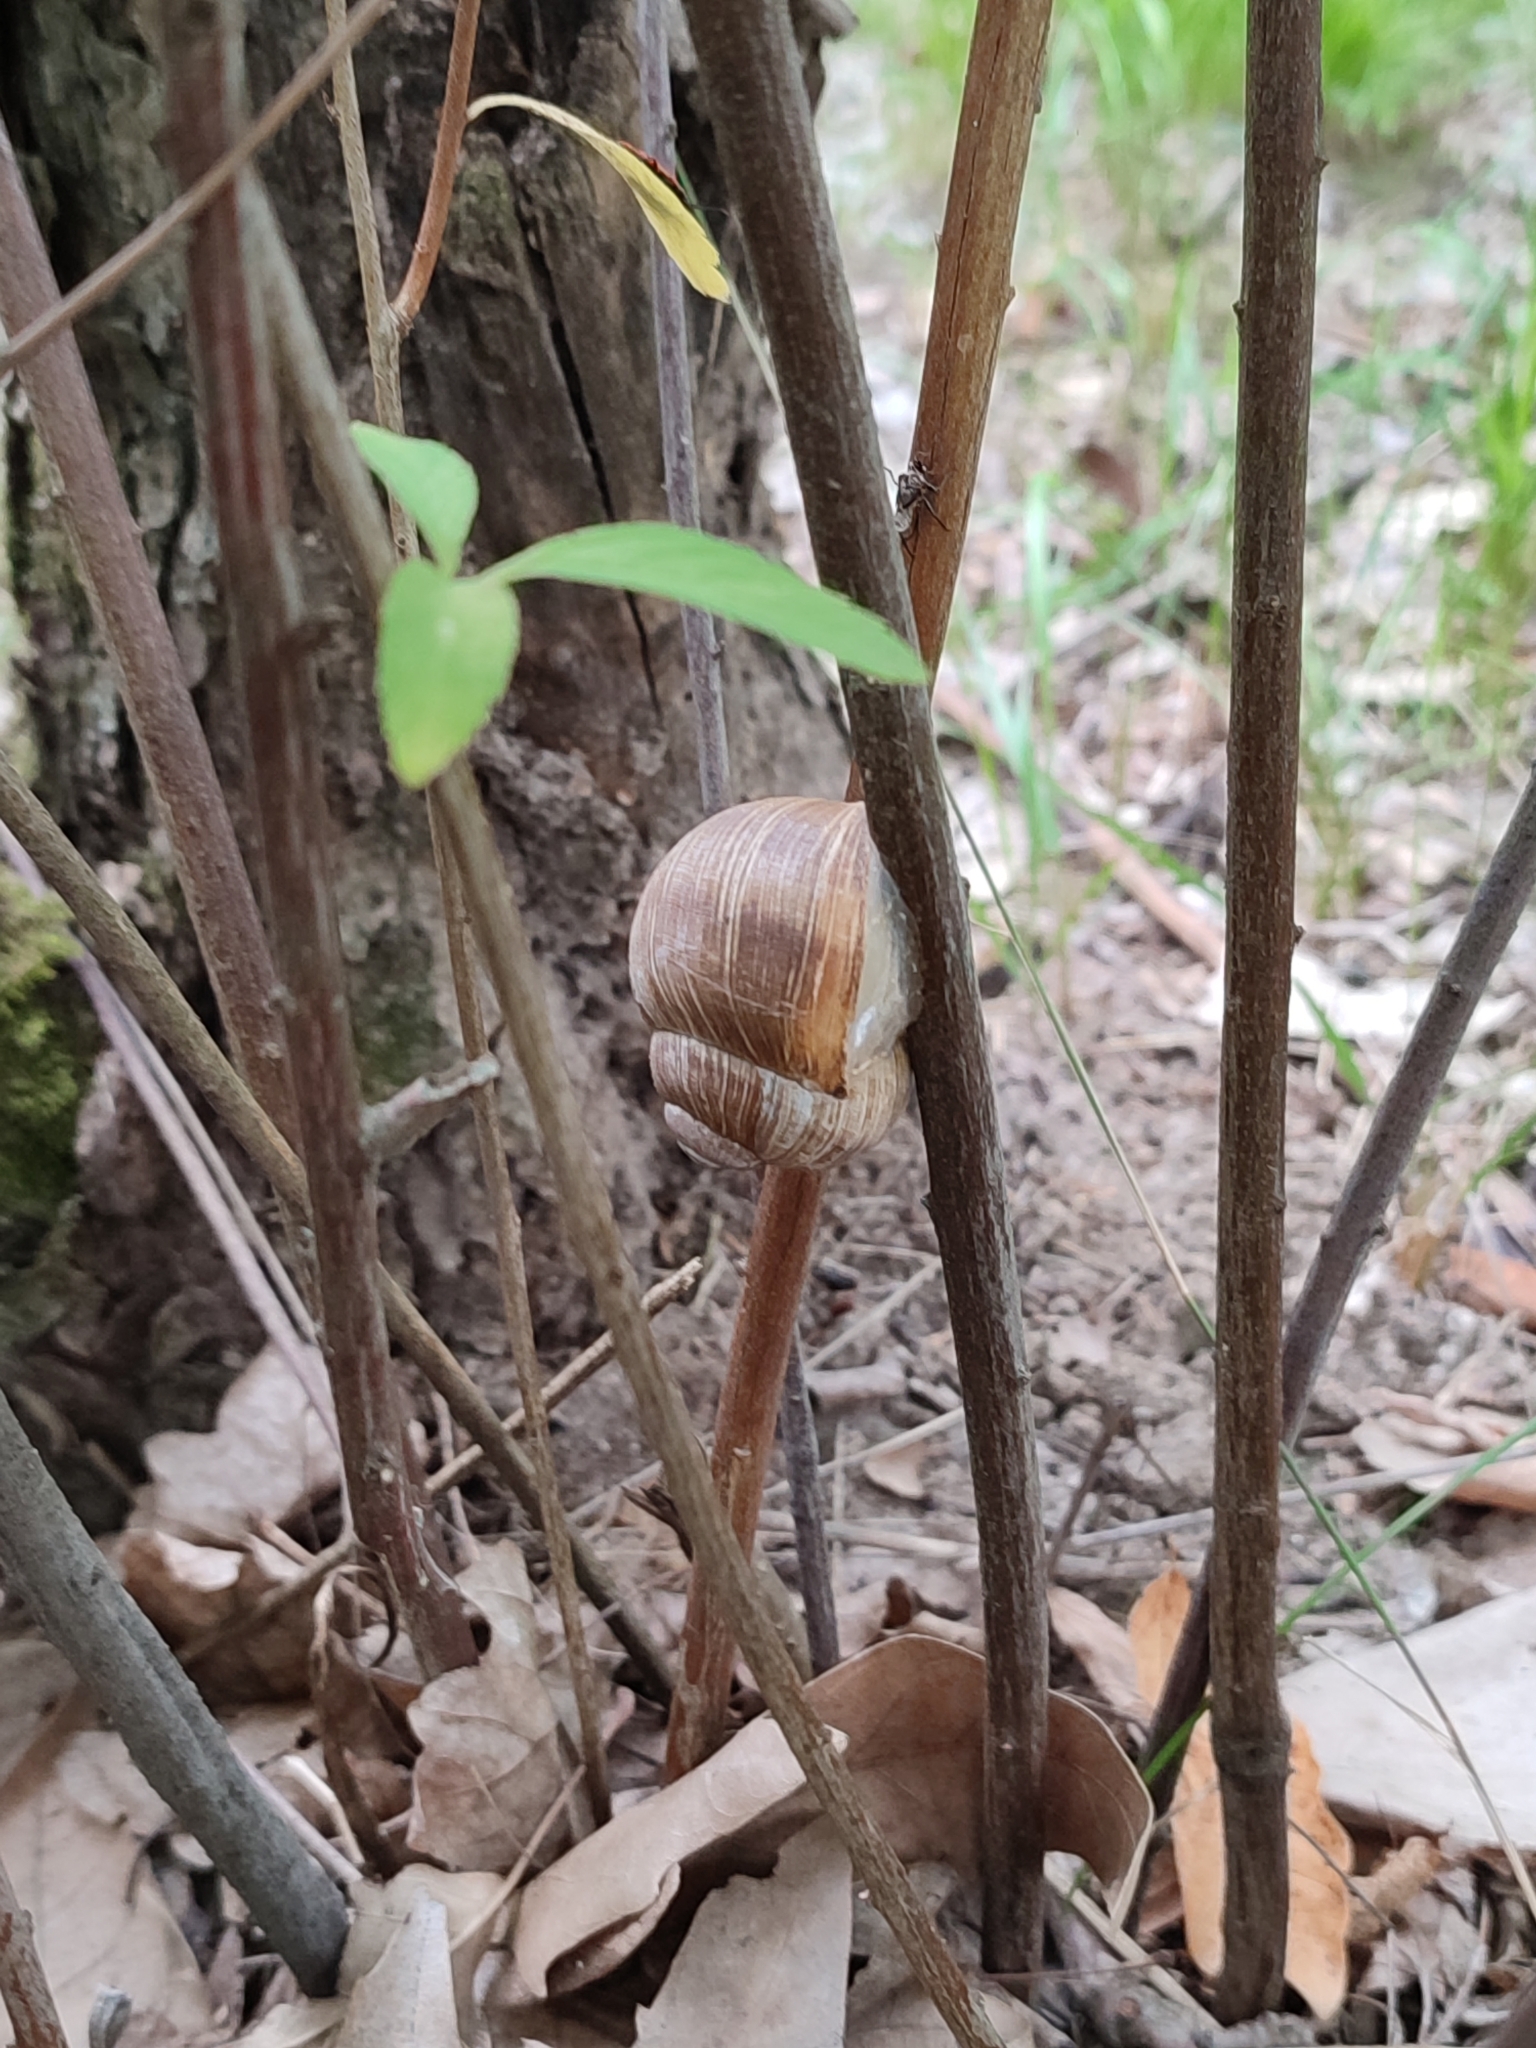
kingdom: Animalia
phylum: Mollusca
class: Gastropoda
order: Stylommatophora
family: Helicidae
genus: Helix
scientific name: Helix pomatia
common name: Roman snail
